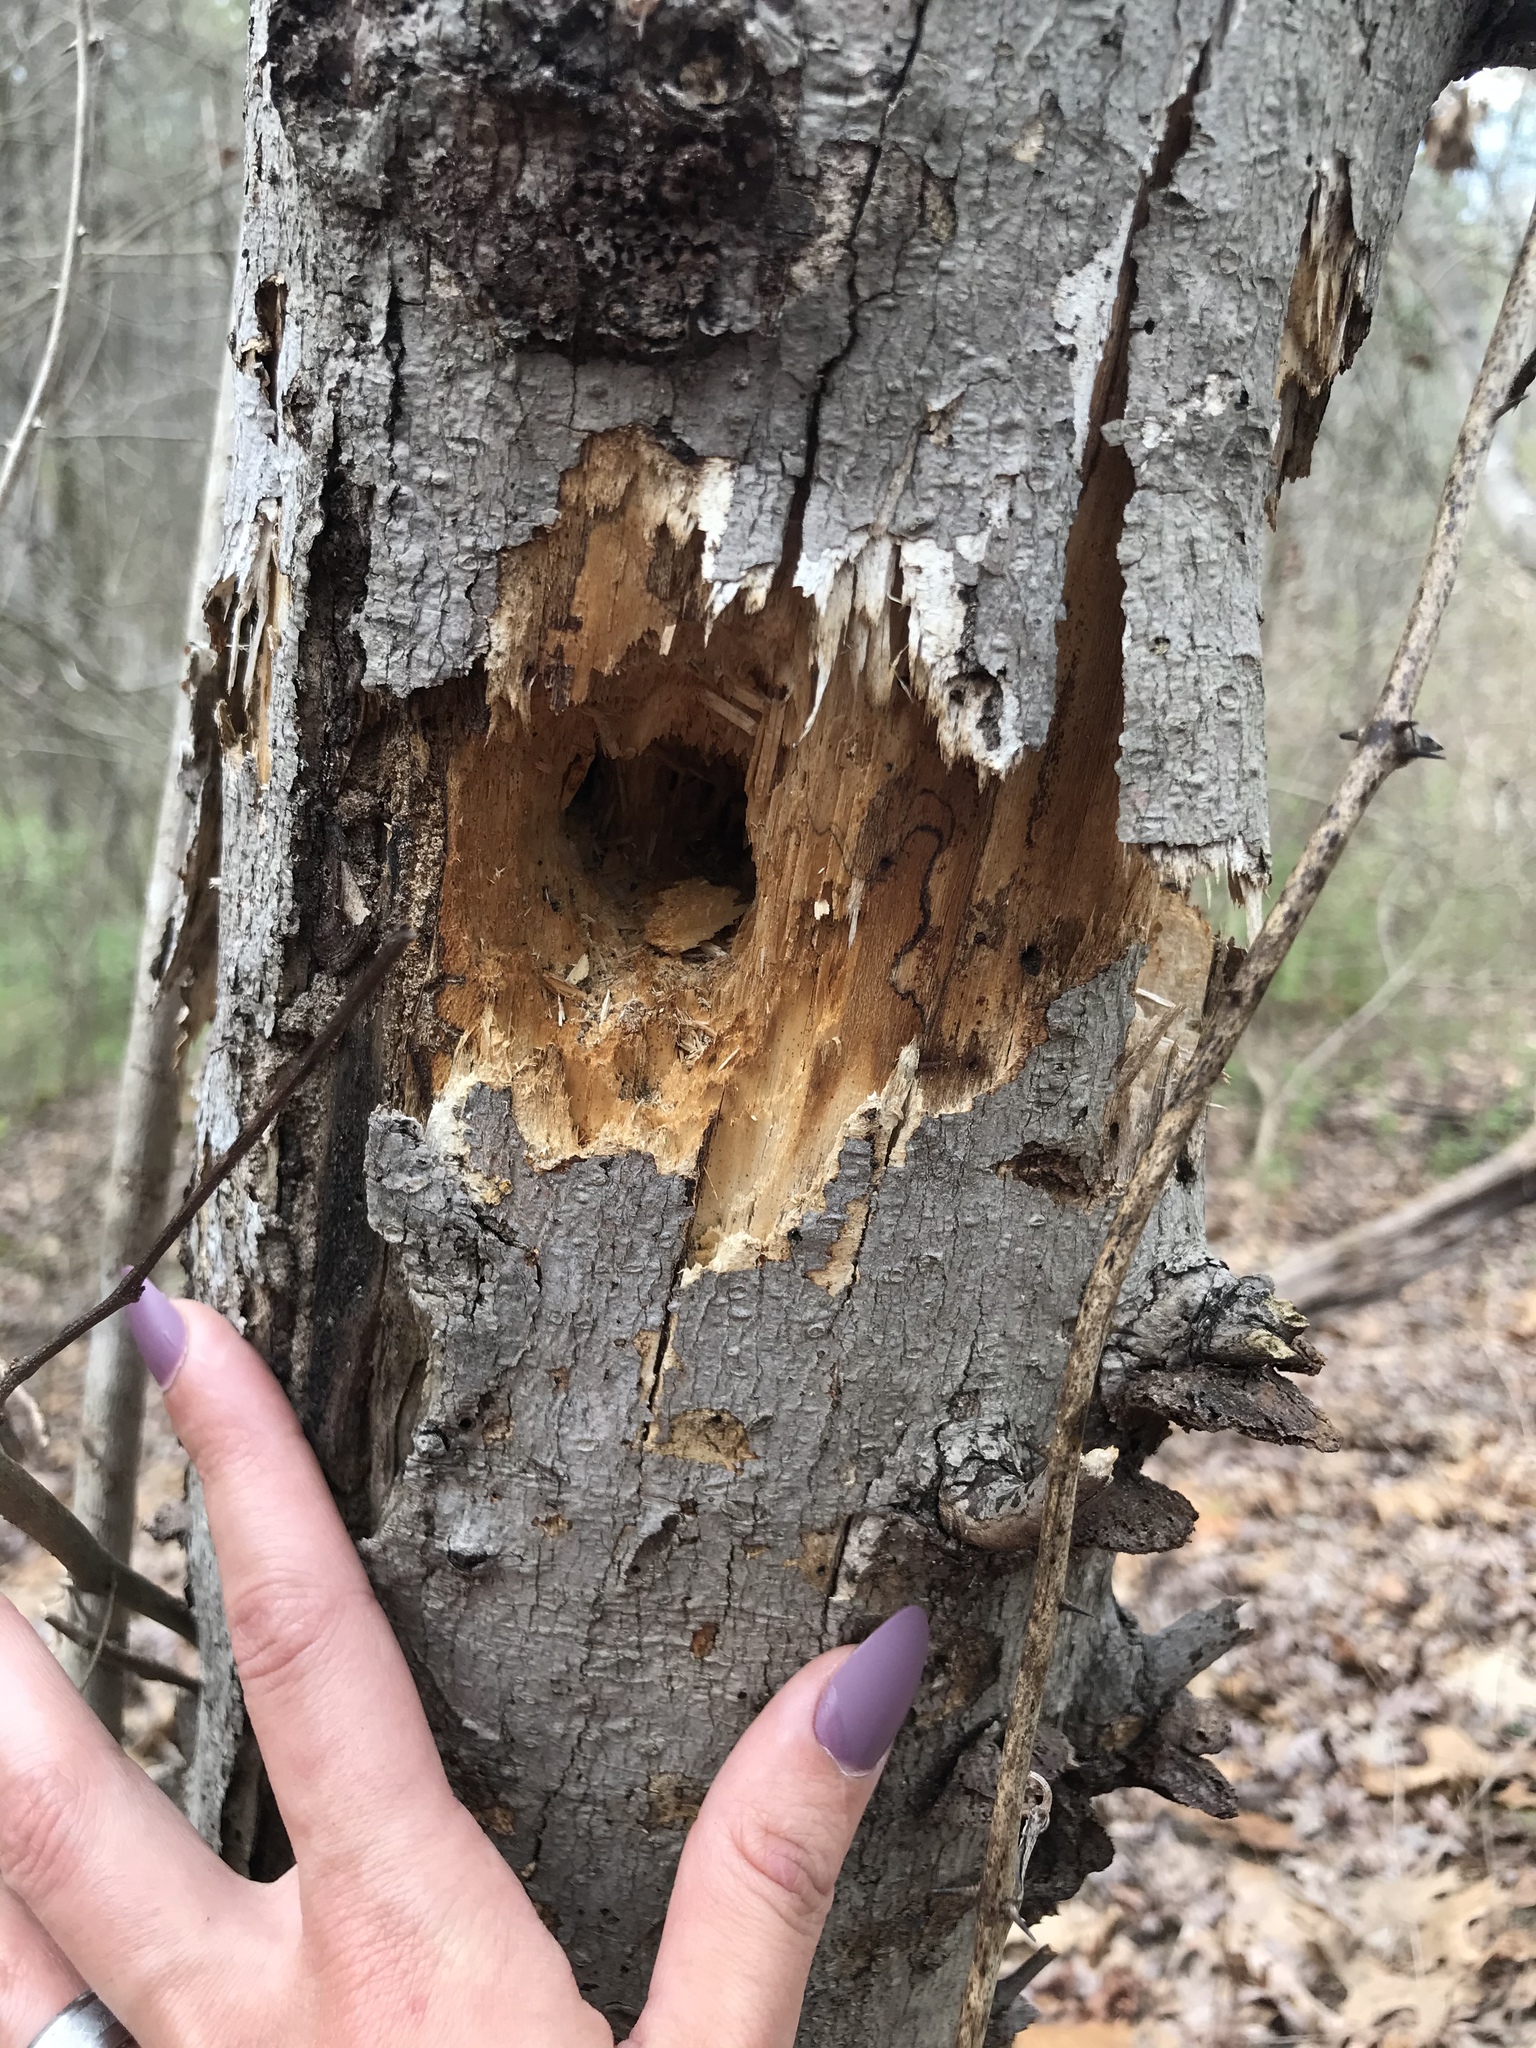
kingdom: Animalia
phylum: Chordata
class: Aves
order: Piciformes
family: Picidae
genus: Dryocopus
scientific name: Dryocopus pileatus
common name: Pileated woodpecker
